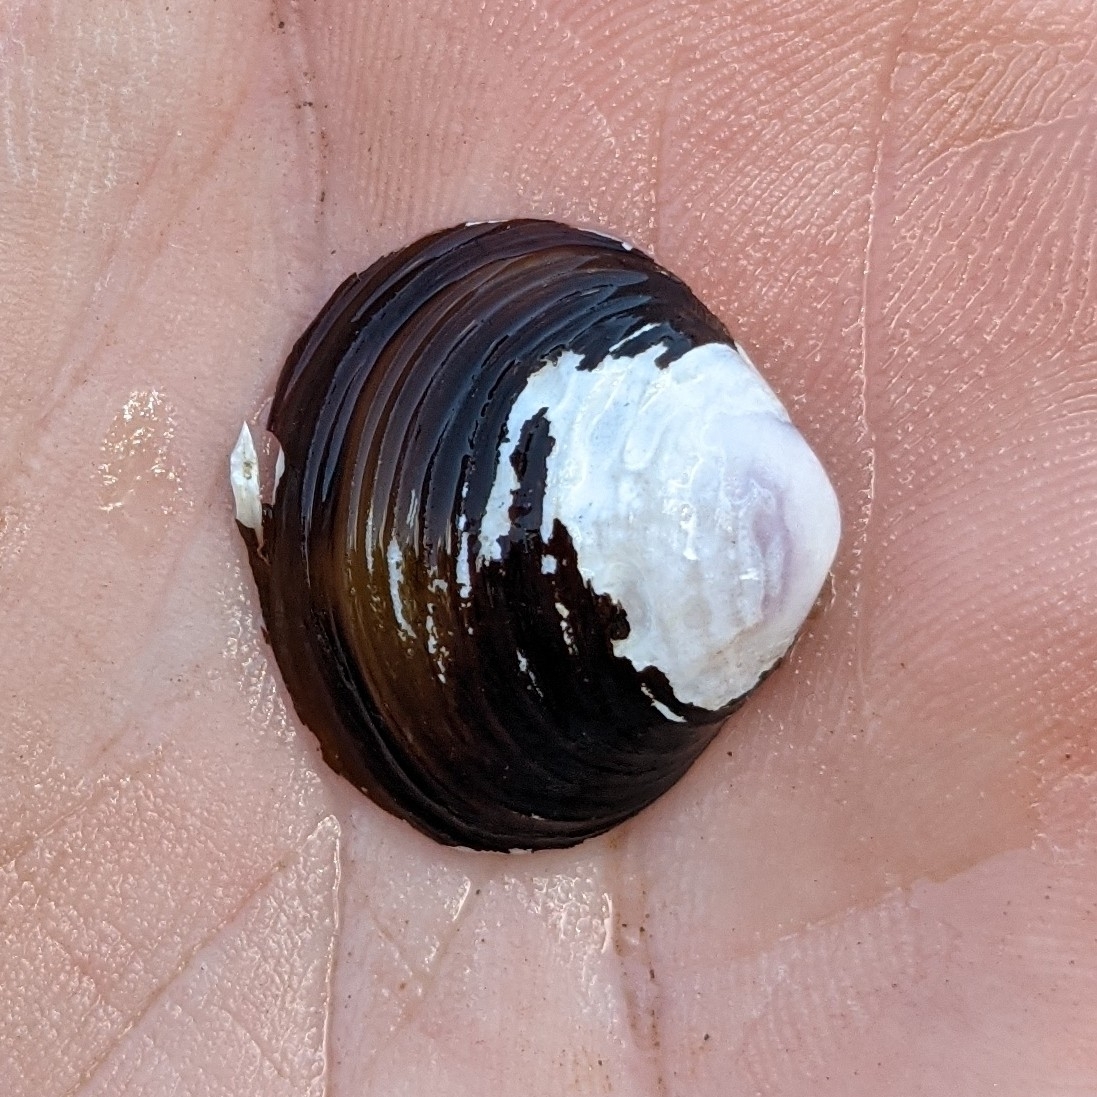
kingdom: Animalia
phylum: Mollusca
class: Bivalvia
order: Venerida
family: Cyrenidae
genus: Corbicula
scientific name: Corbicula fluminea
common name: Asian clam
